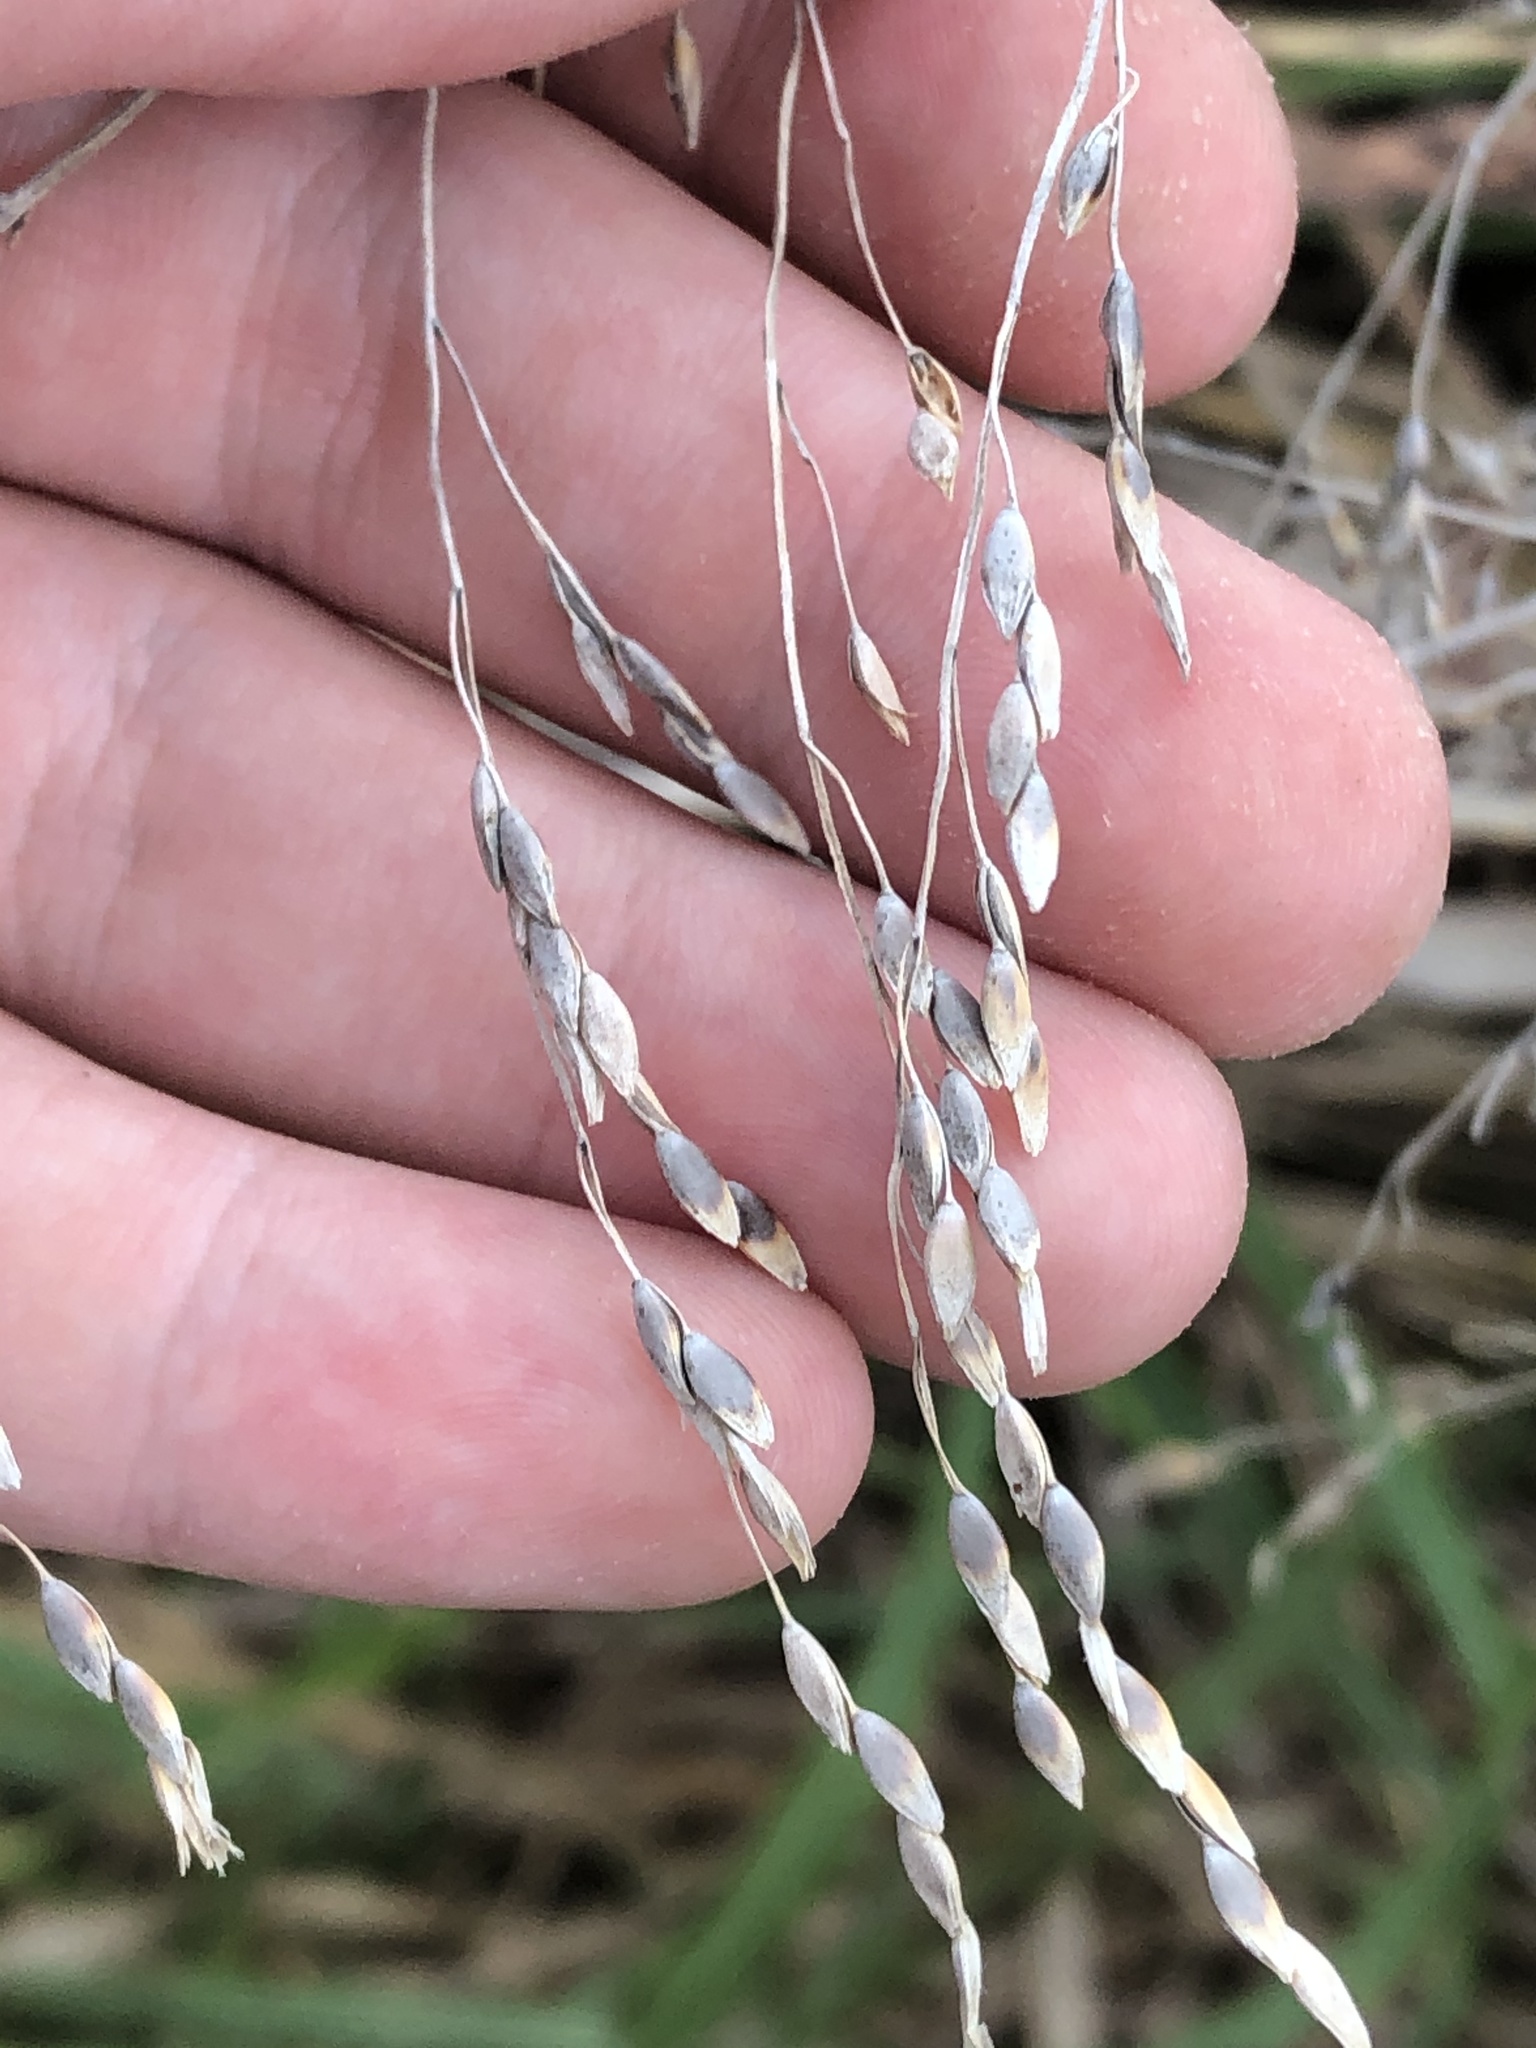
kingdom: Plantae
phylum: Tracheophyta
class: Liliopsida
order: Poales
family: Poaceae
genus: Sorghum
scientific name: Sorghum halepense
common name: Johnson-grass
